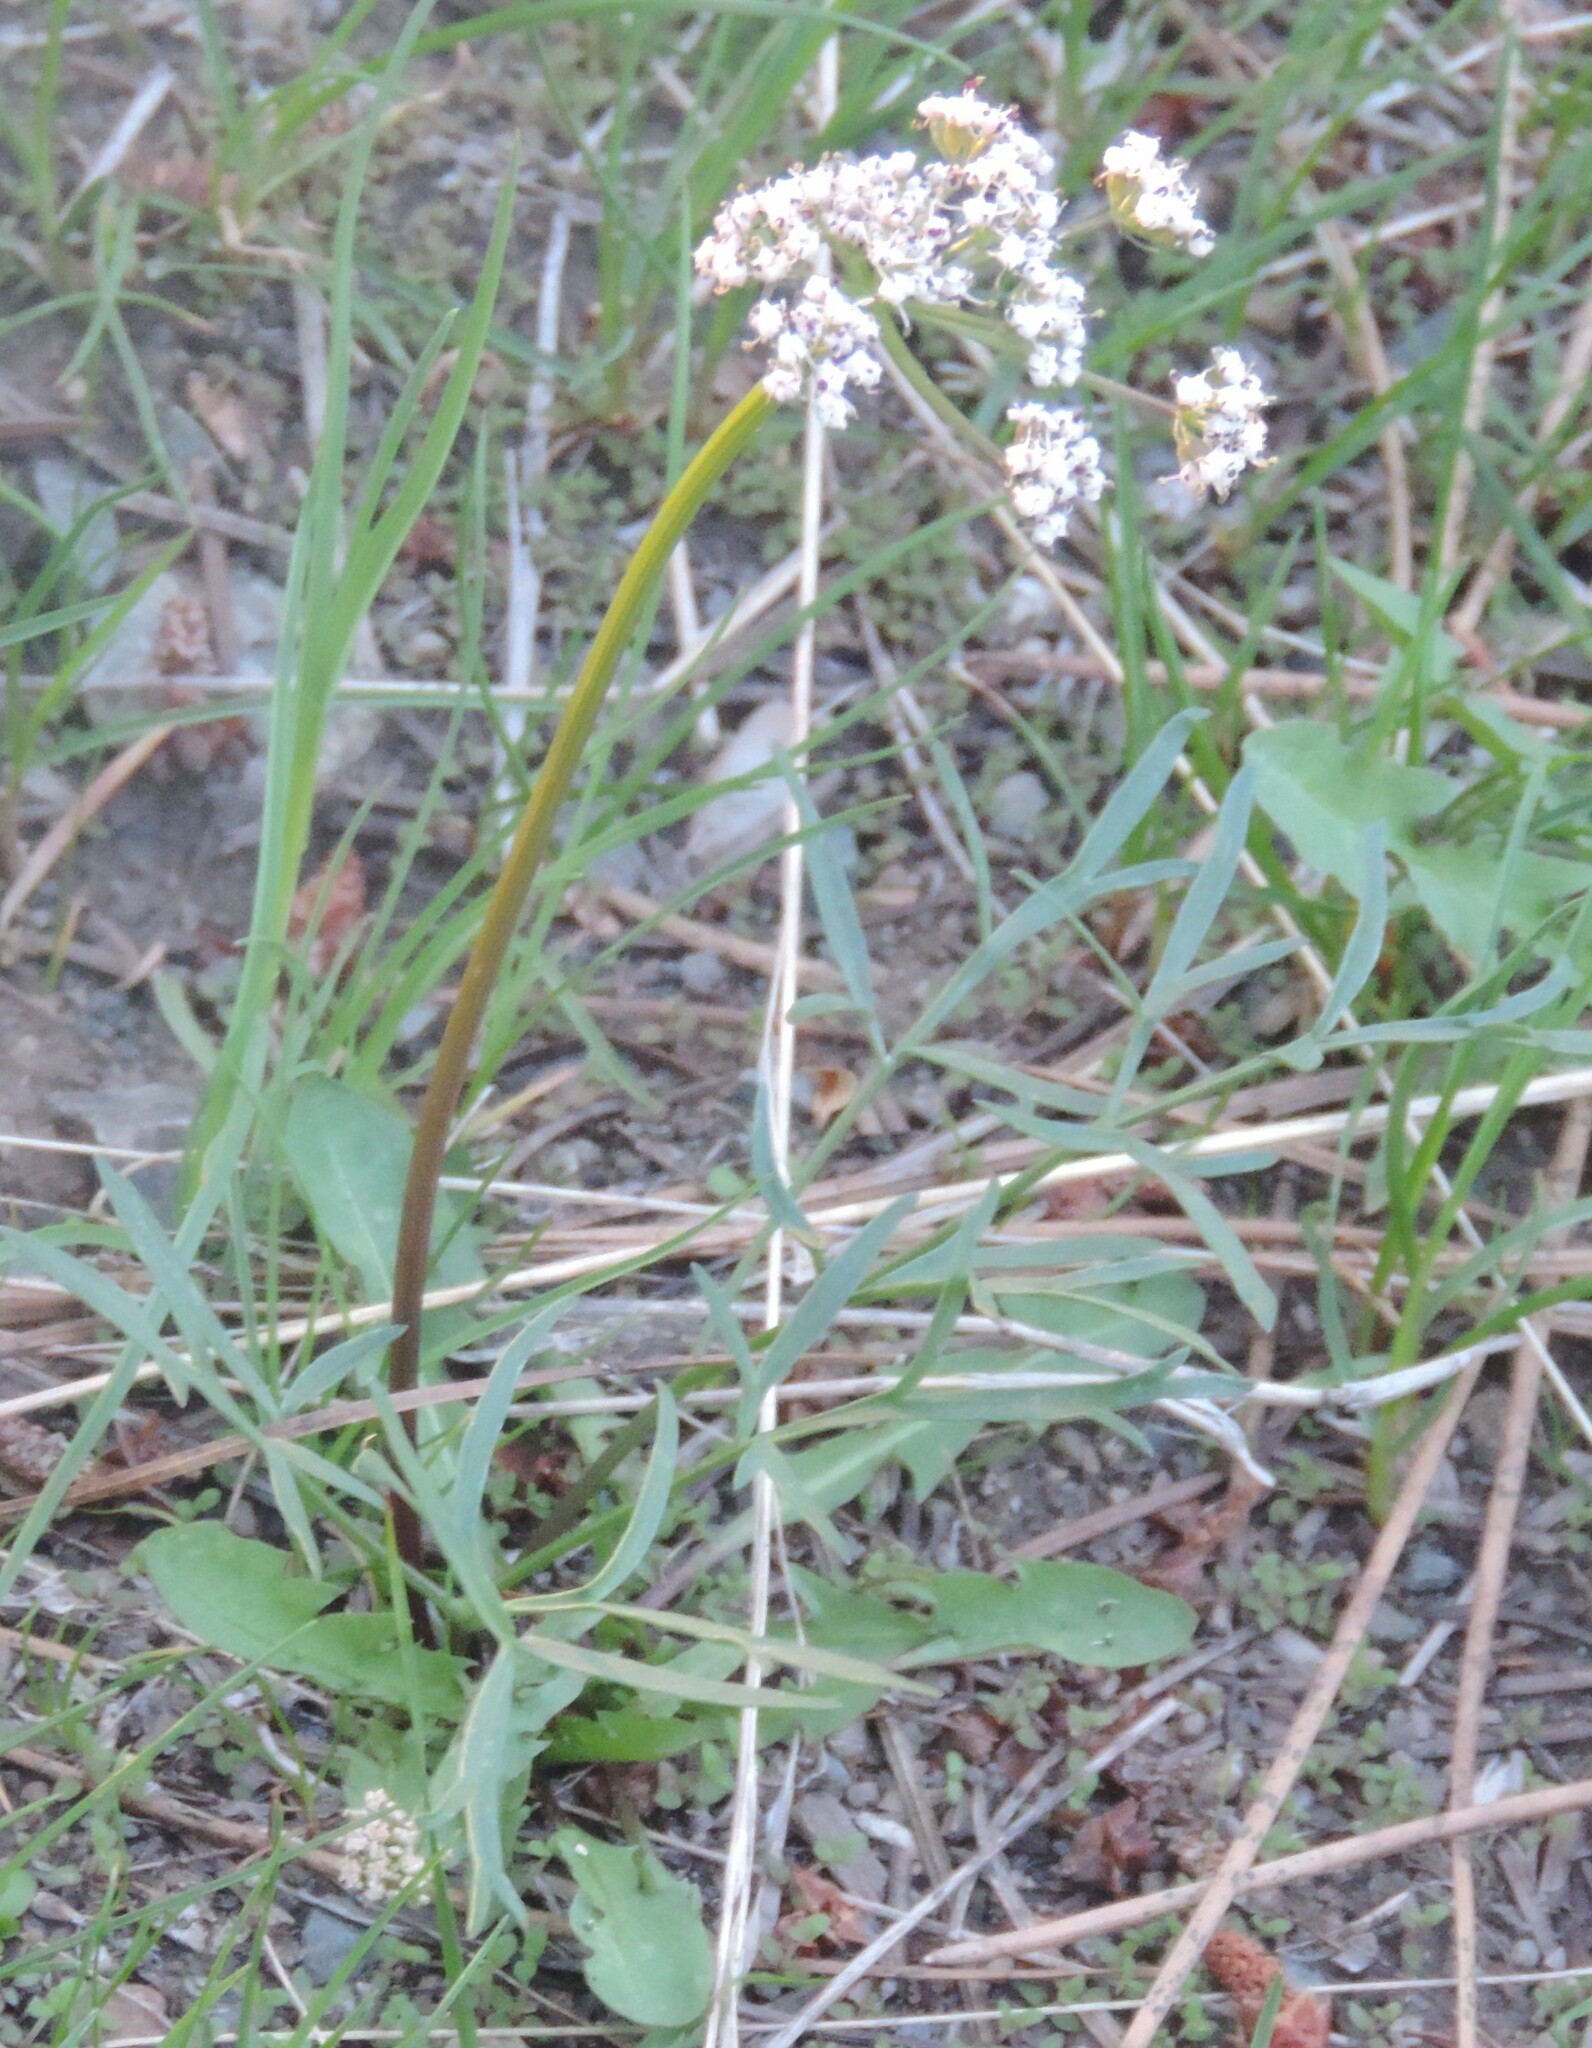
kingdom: Plantae
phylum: Tracheophyta
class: Magnoliopsida
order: Apiales
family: Apiaceae
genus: Lomatium
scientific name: Lomatium geyeri
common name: Geyer's biscuitroot
